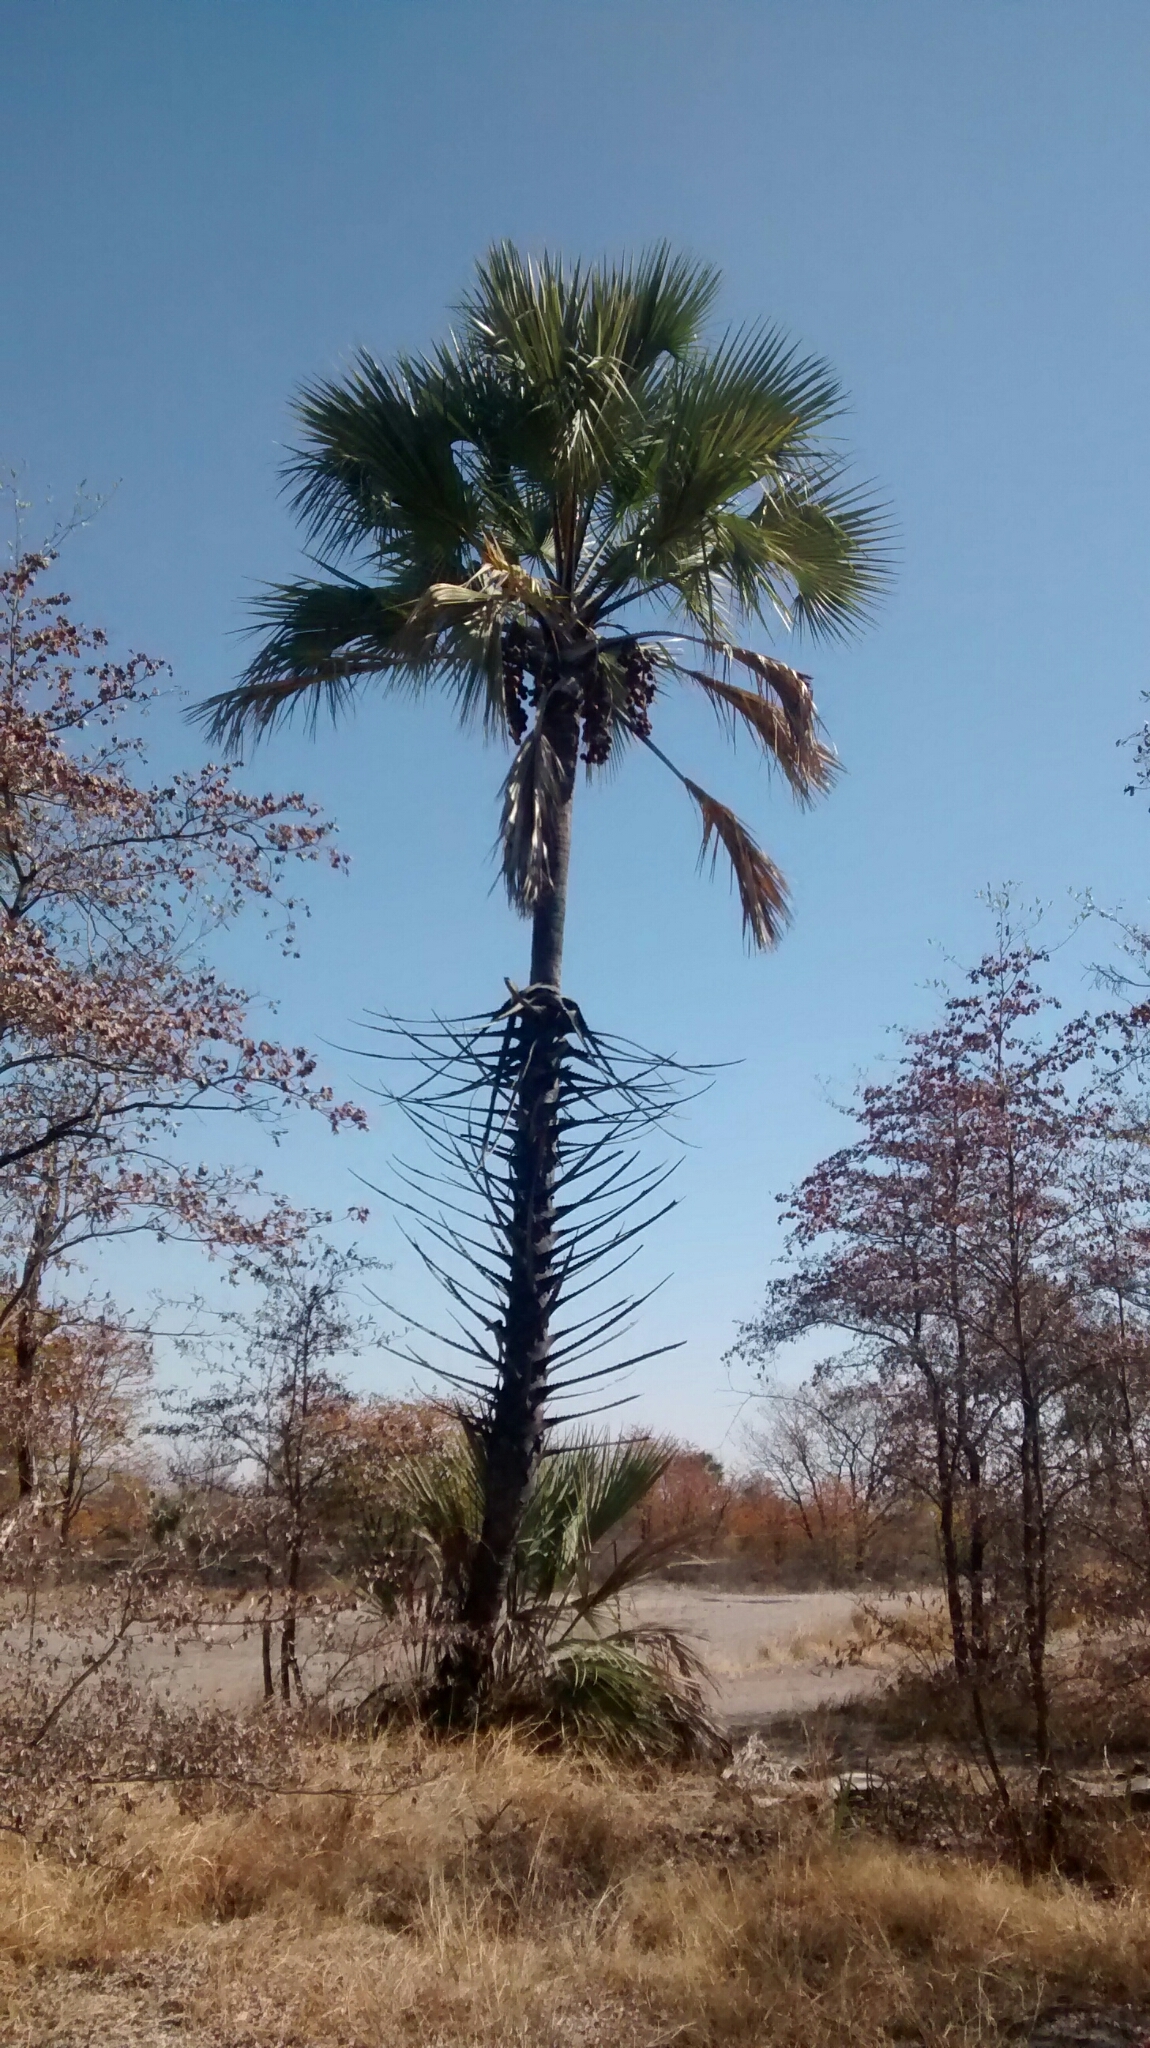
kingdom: Plantae
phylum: Tracheophyta
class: Liliopsida
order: Arecales
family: Arecaceae
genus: Hyphaene
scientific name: Hyphaene petersiana
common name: African ivory nut palm
